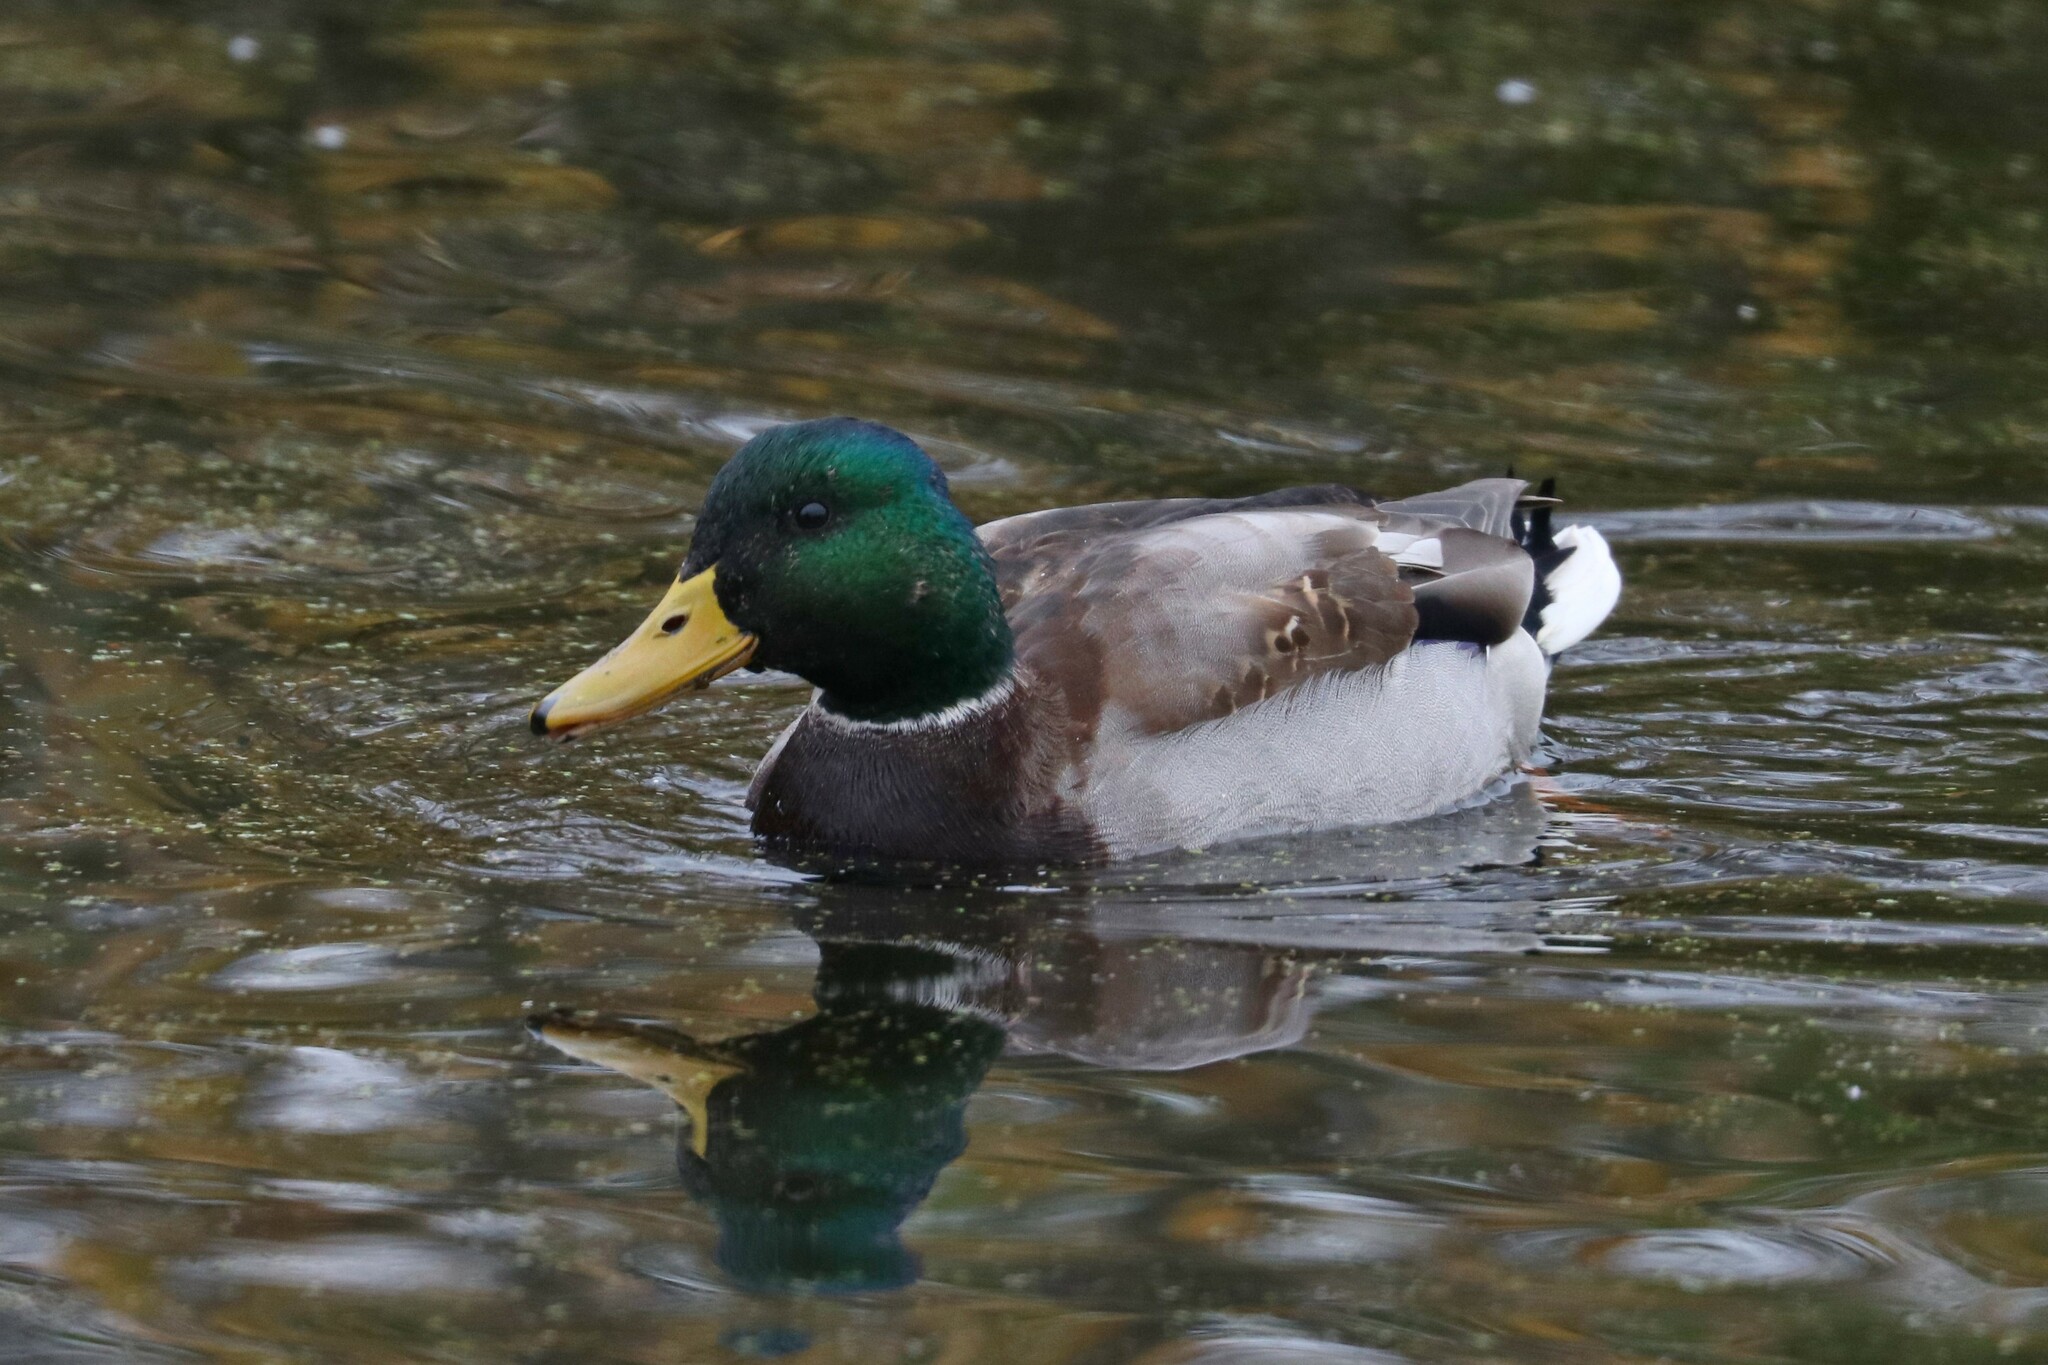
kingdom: Animalia
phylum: Chordata
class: Aves
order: Anseriformes
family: Anatidae
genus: Anas
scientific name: Anas platyrhynchos
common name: Mallard
